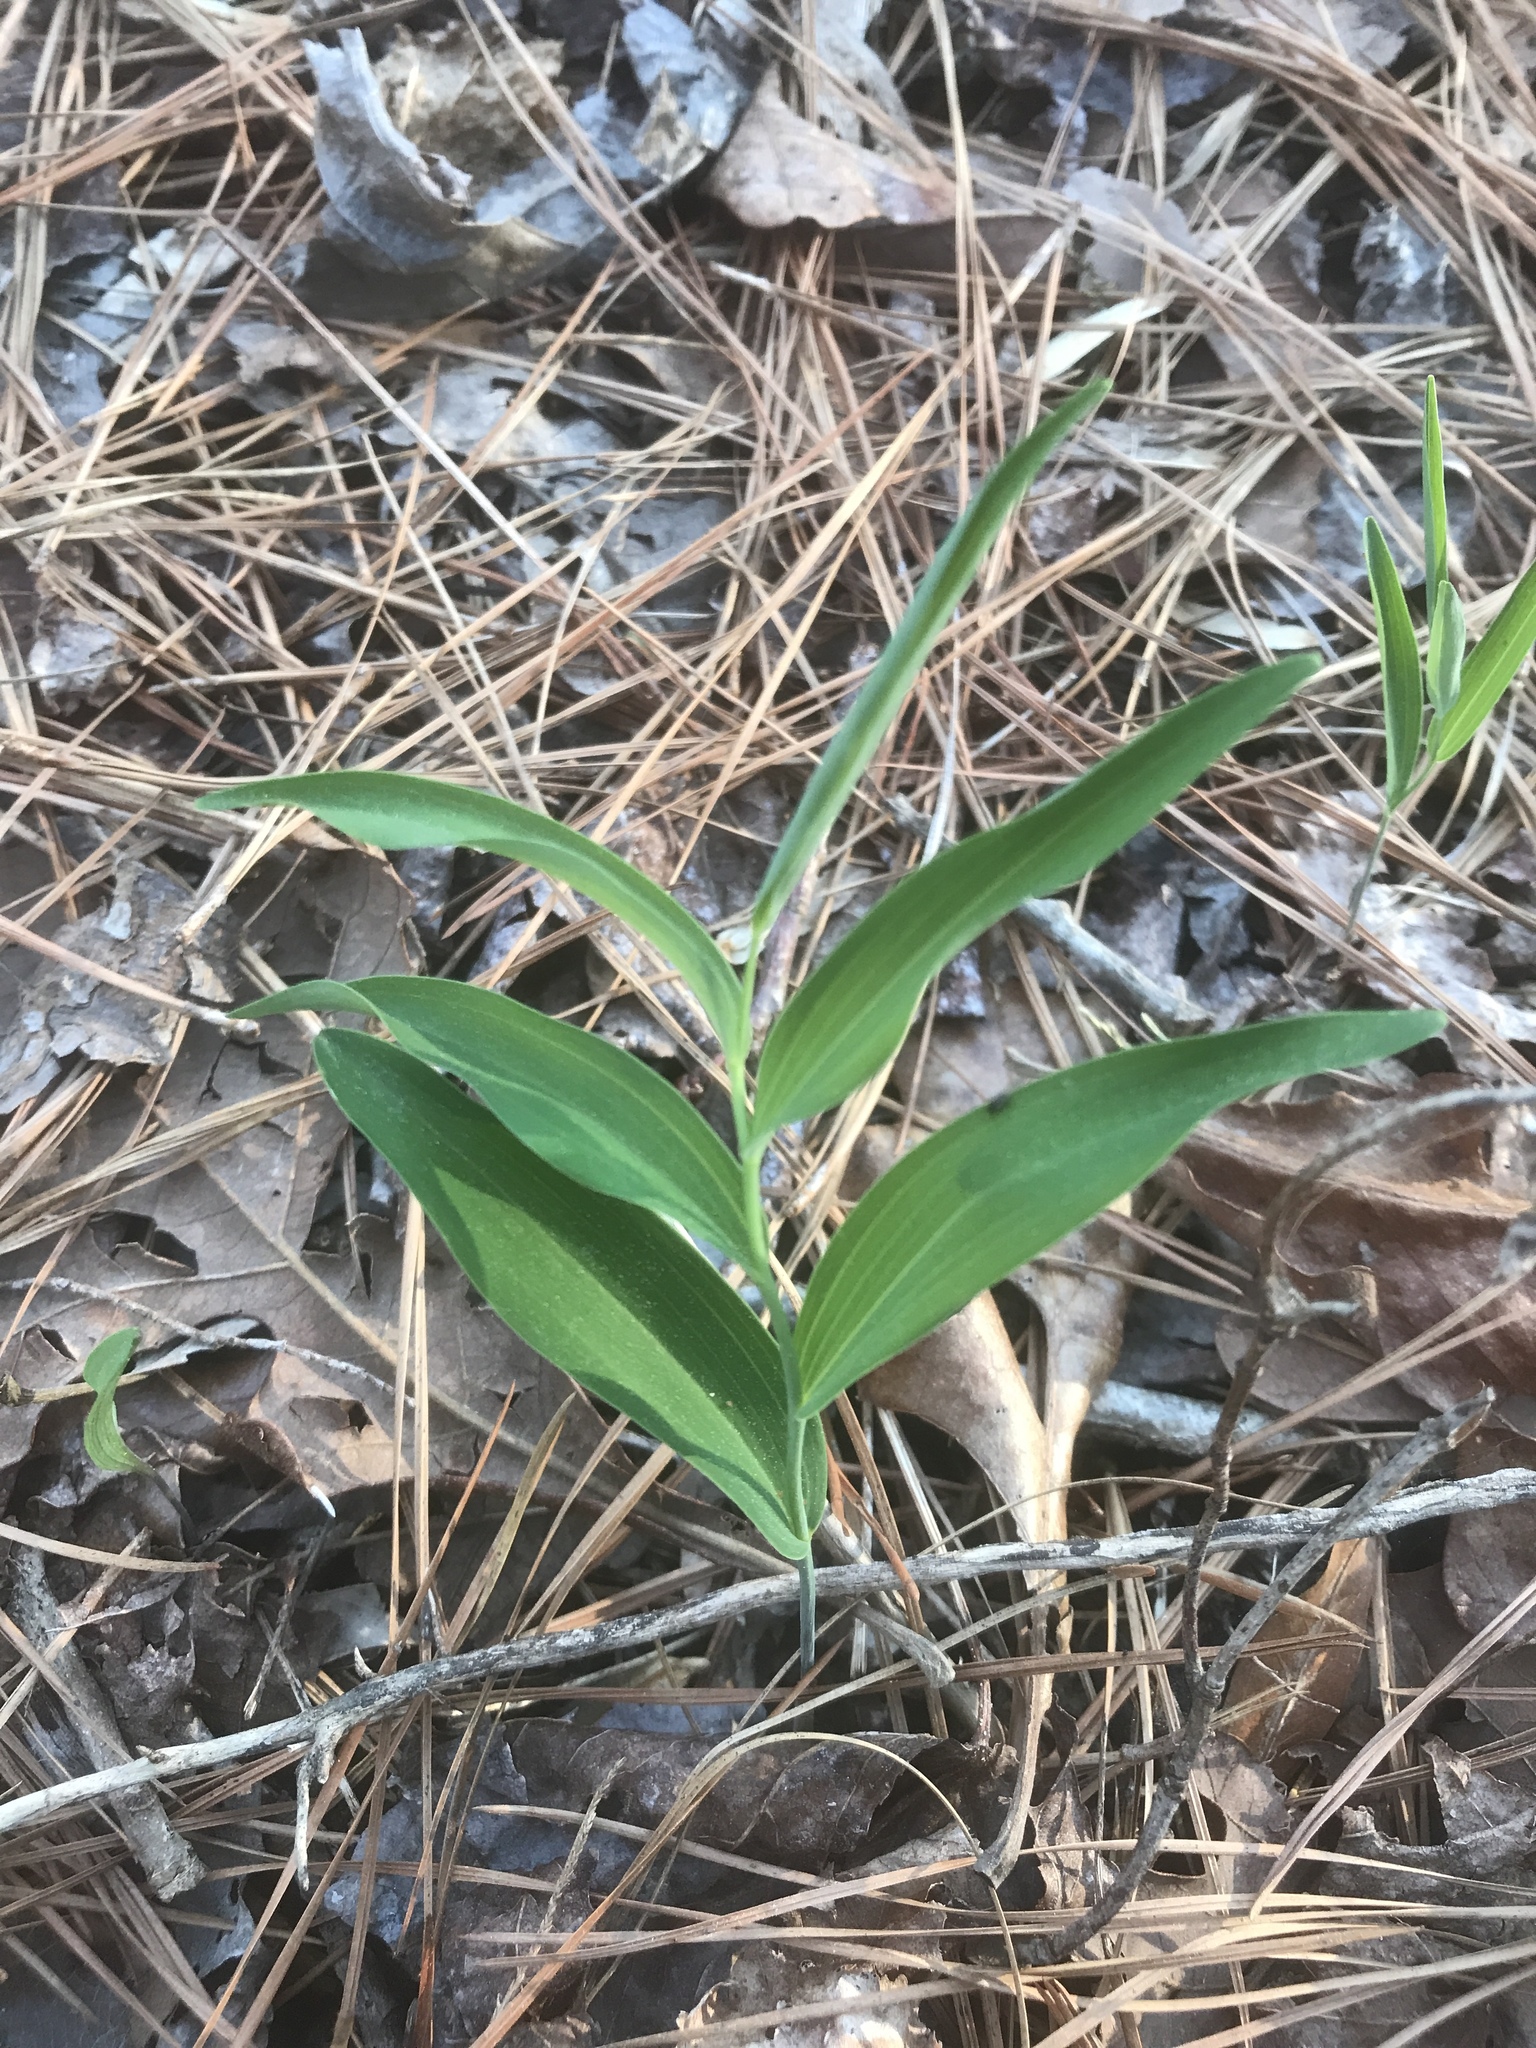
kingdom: Plantae
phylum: Tracheophyta
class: Liliopsida
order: Asparagales
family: Asparagaceae
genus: Polygonatum
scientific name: Polygonatum biflorum
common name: American solomon's-seal
